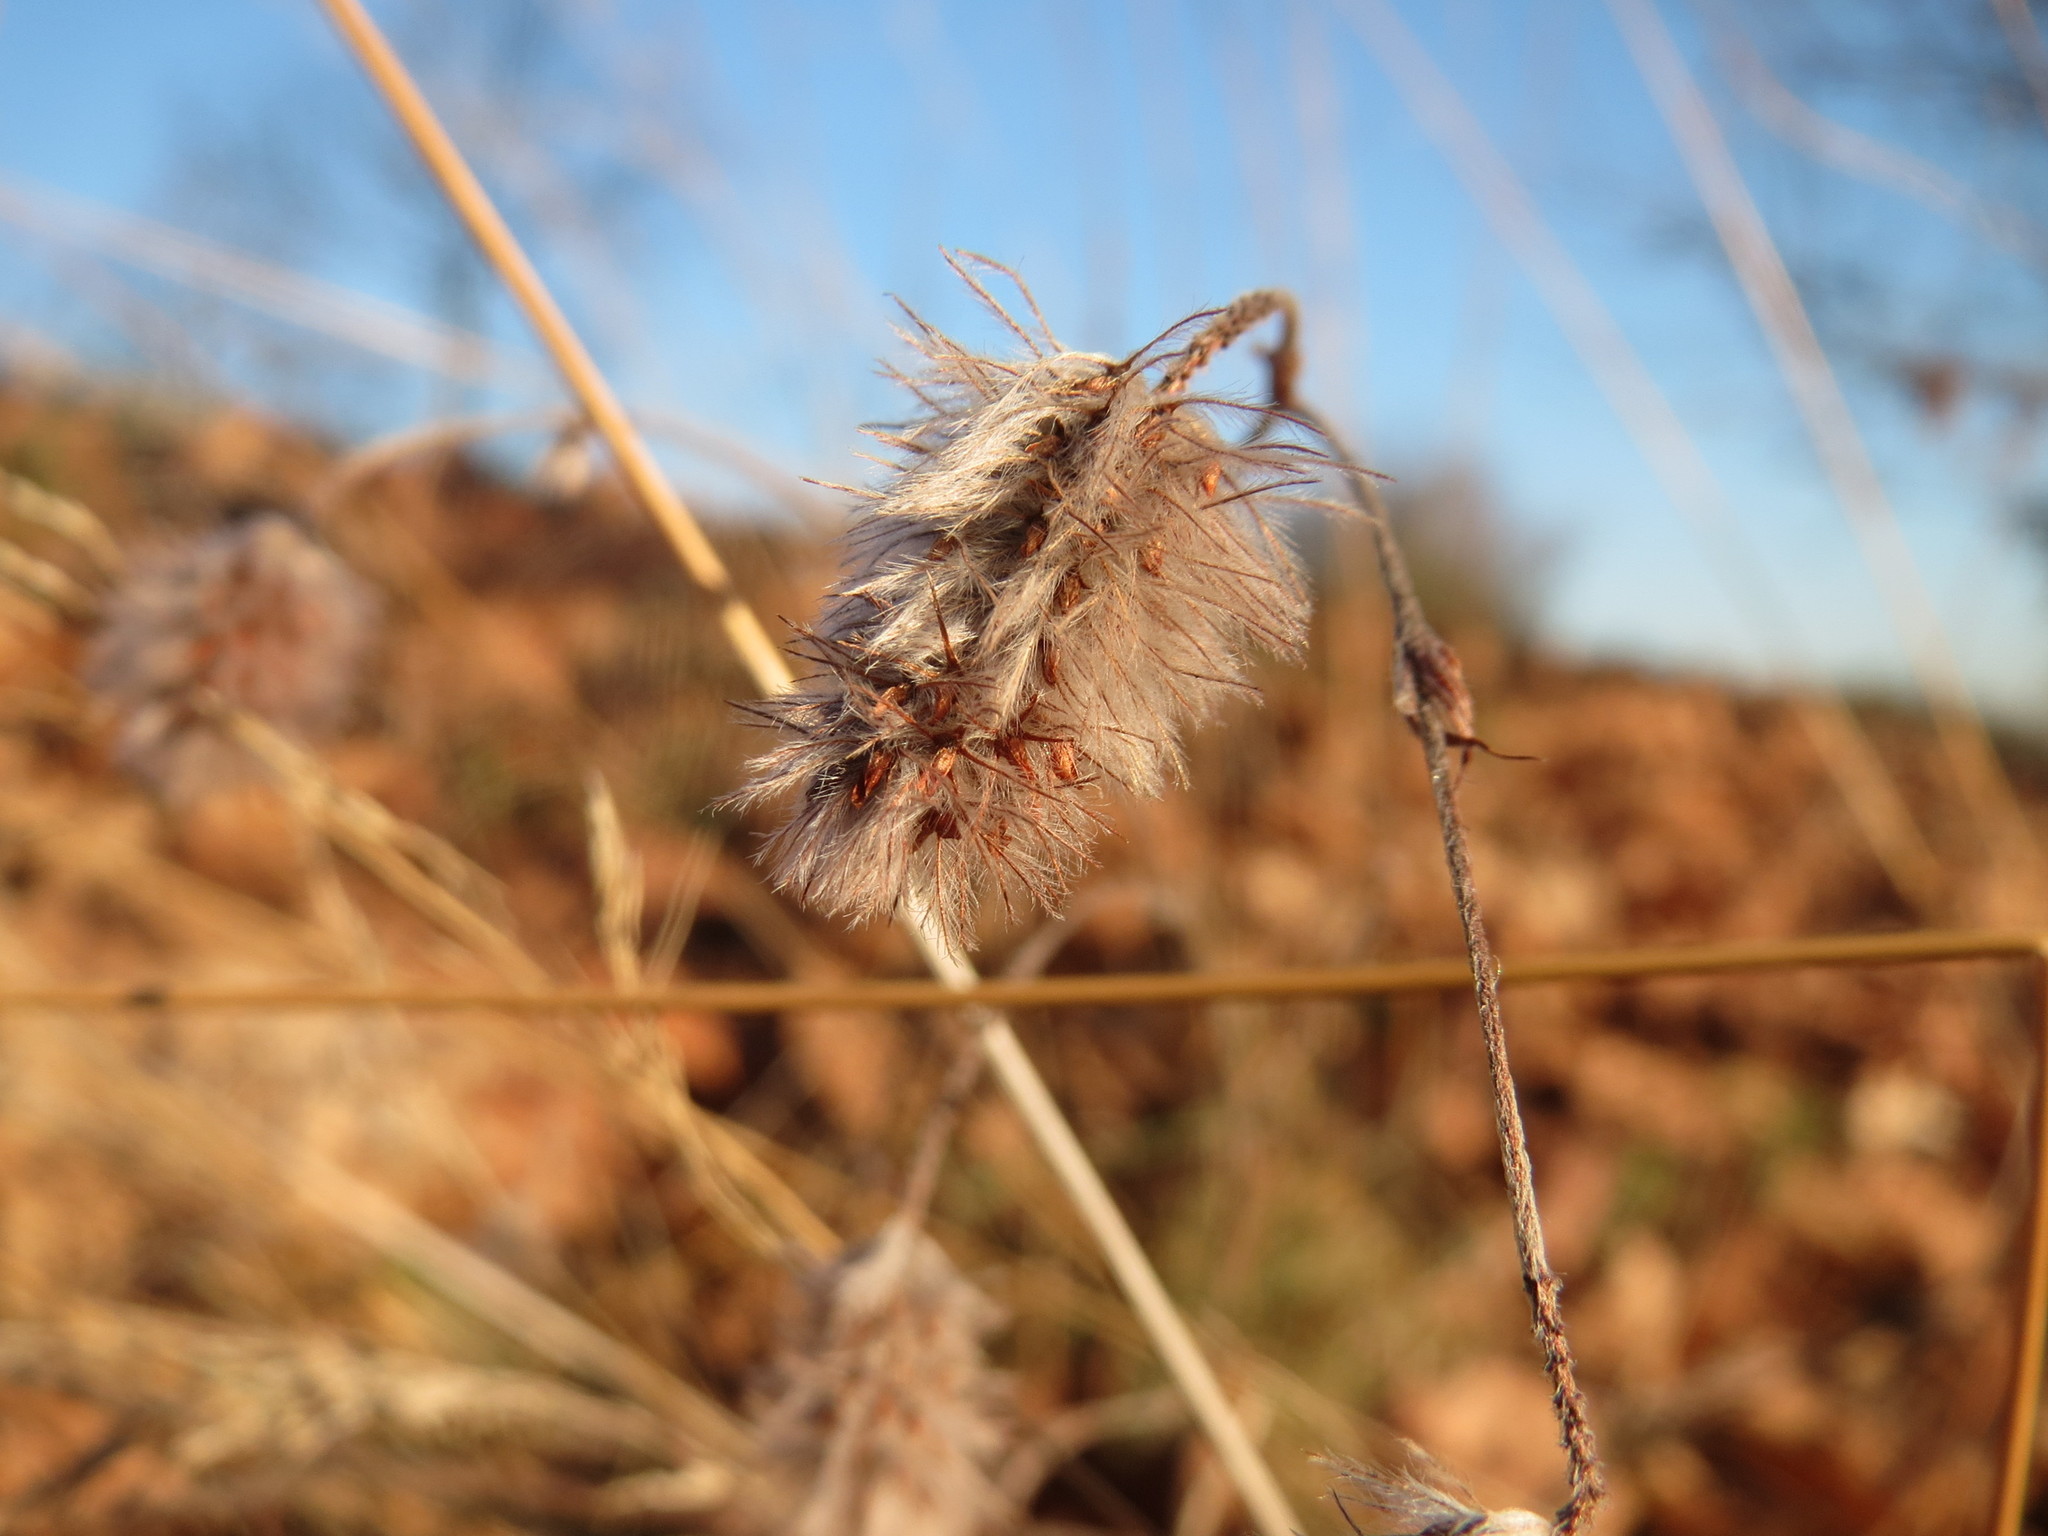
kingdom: Plantae
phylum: Tracheophyta
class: Magnoliopsida
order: Fabales
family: Fabaceae
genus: Trifolium
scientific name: Trifolium arvense
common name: Hare's-foot clover
